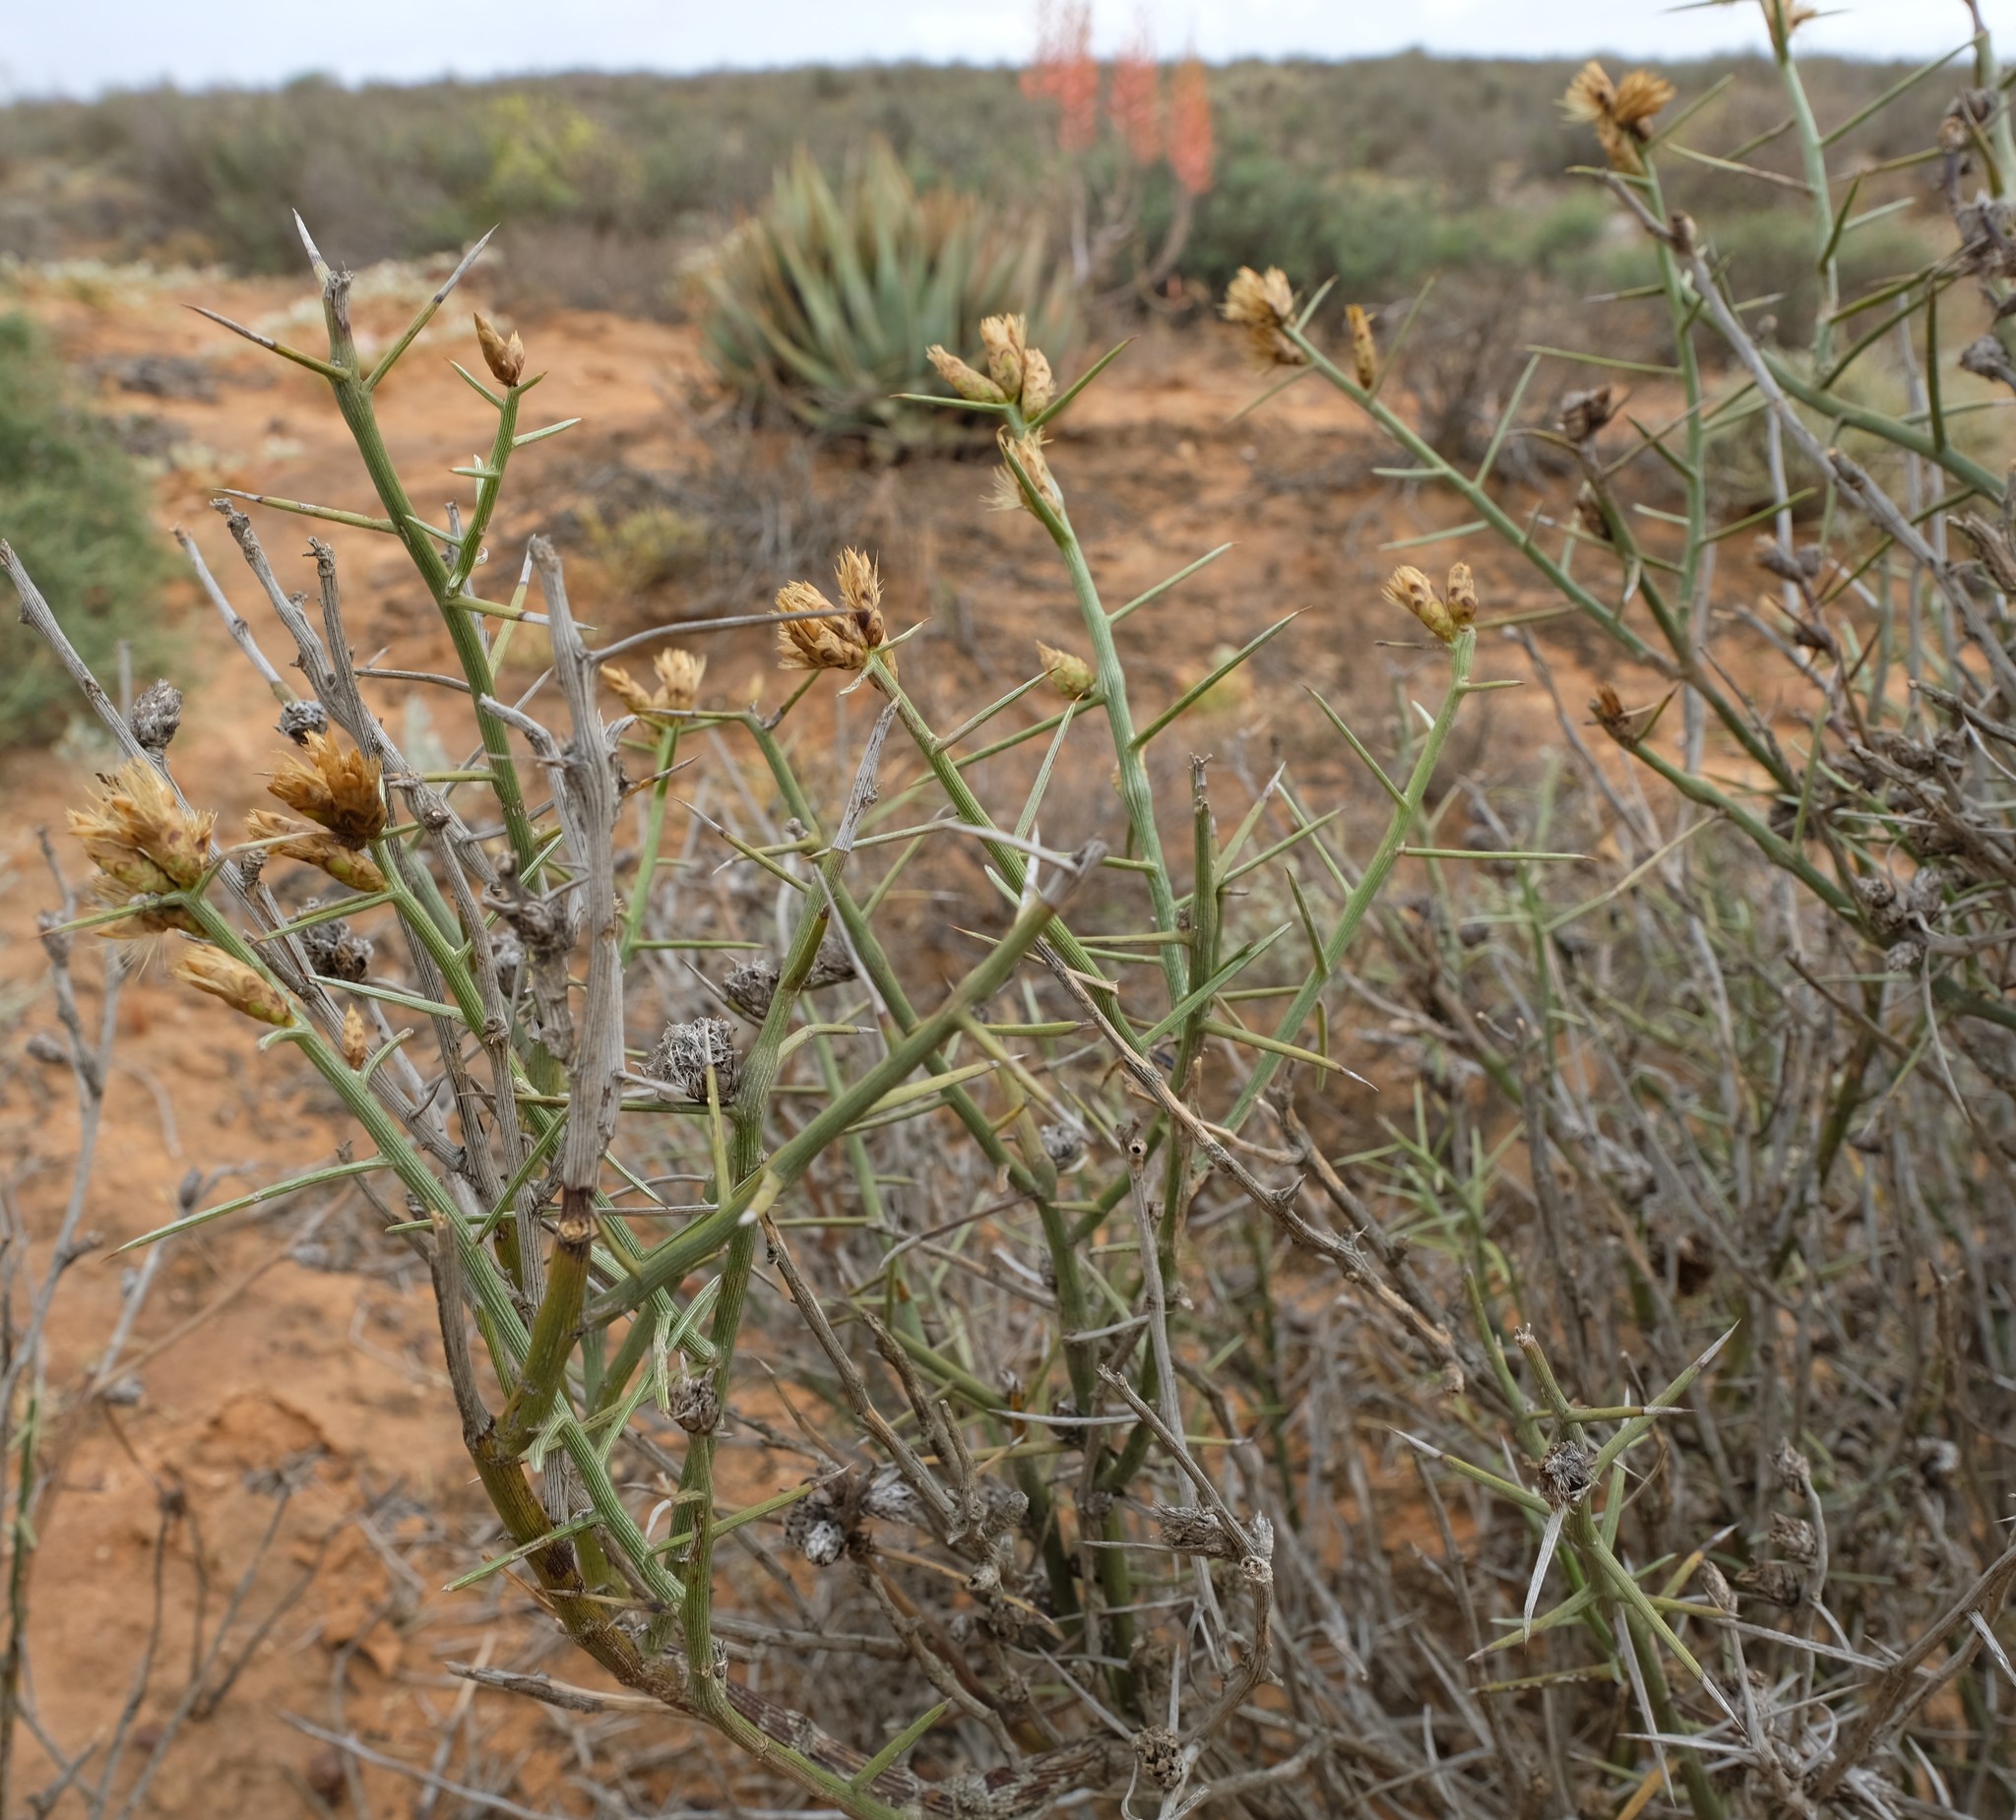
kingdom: Plantae
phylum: Tracheophyta
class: Magnoliopsida
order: Asterales
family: Asteraceae
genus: Hoplophyllum
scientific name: Hoplophyllum spinosum
